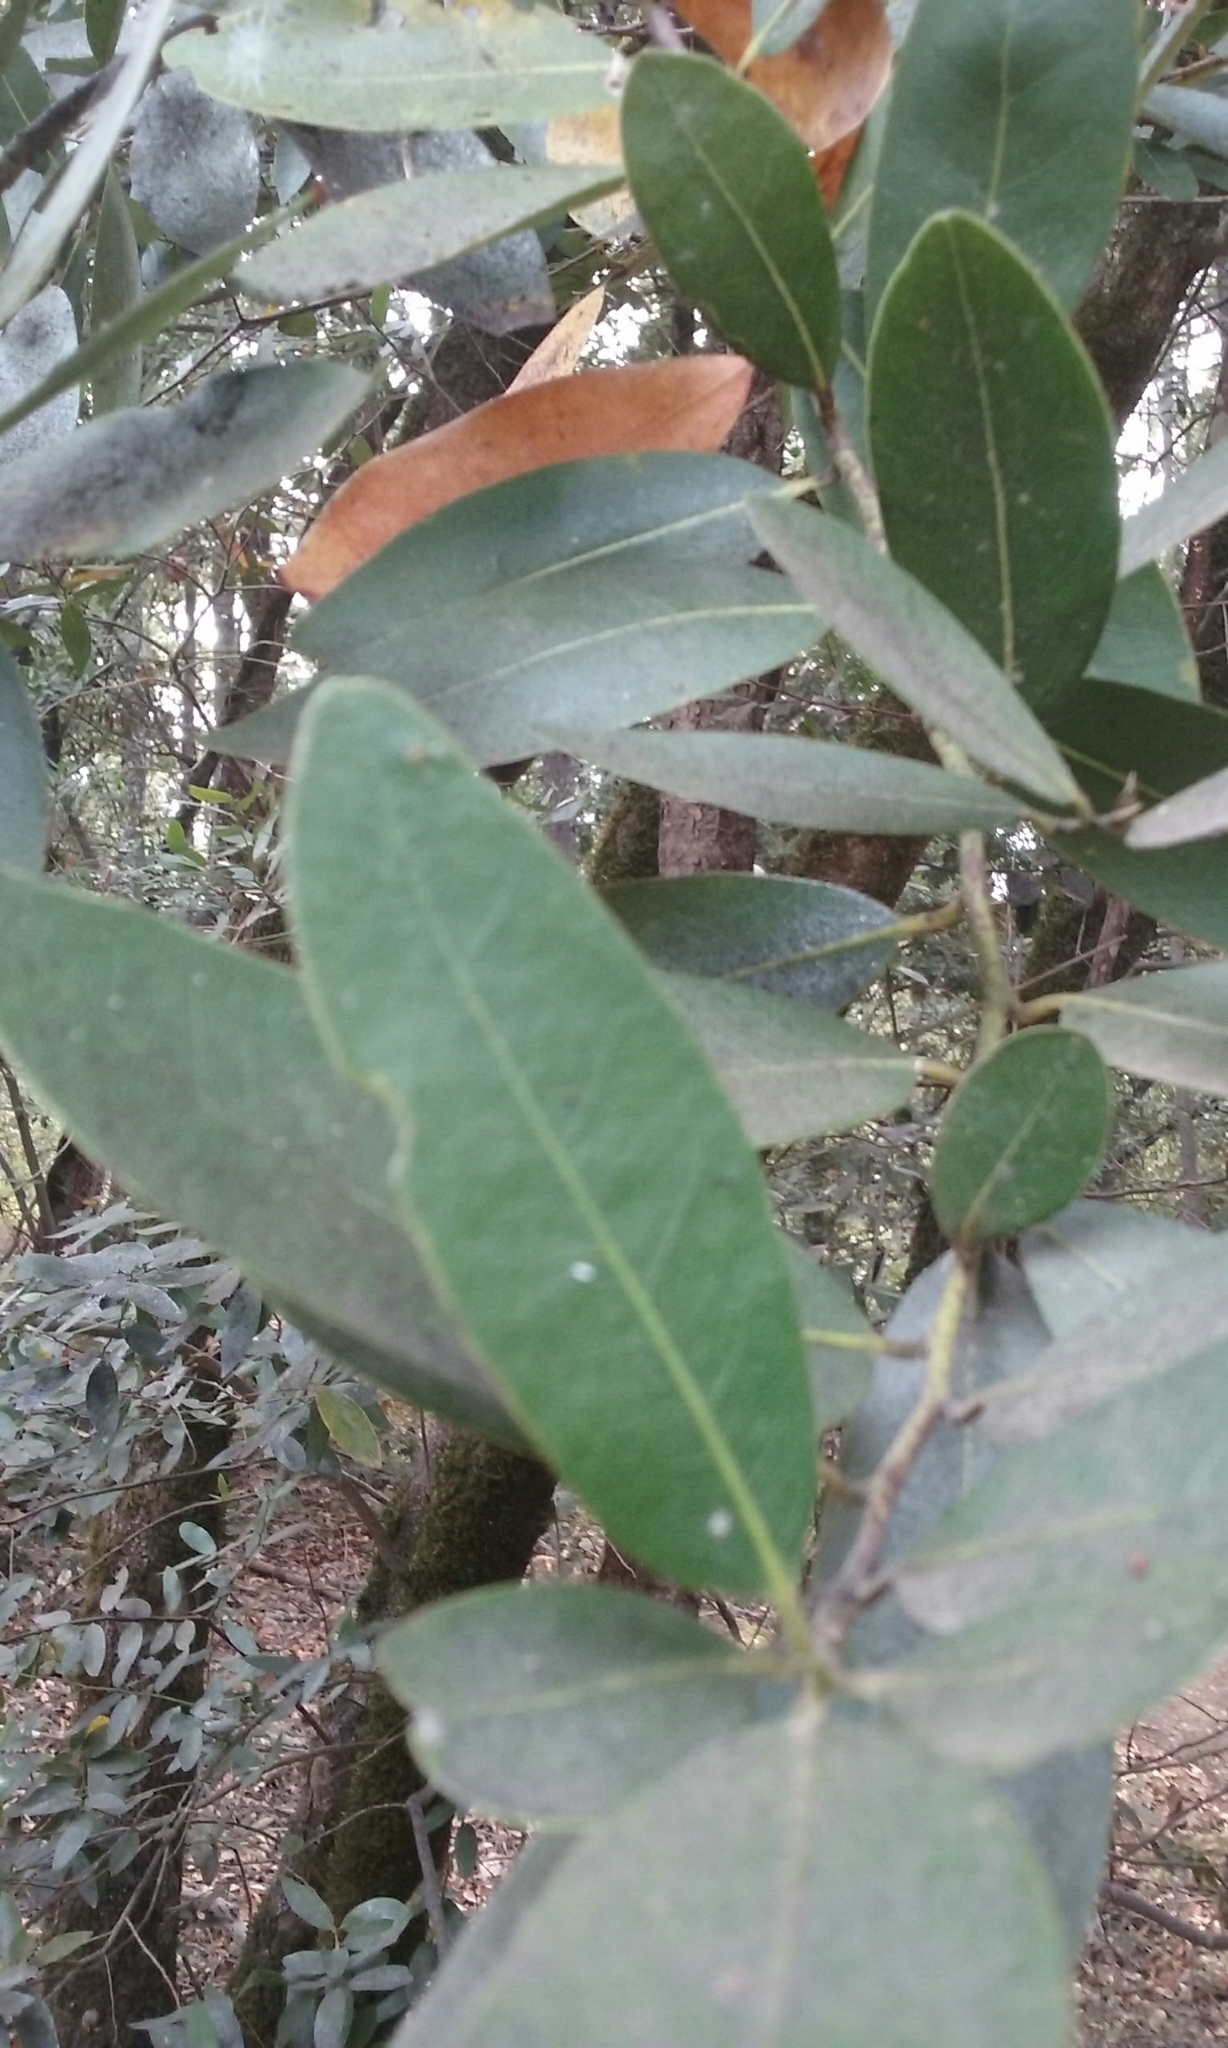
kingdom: Plantae
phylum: Tracheophyta
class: Magnoliopsida
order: Laurales
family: Lauraceae
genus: Umbellularia
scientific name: Umbellularia californica
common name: California bay
